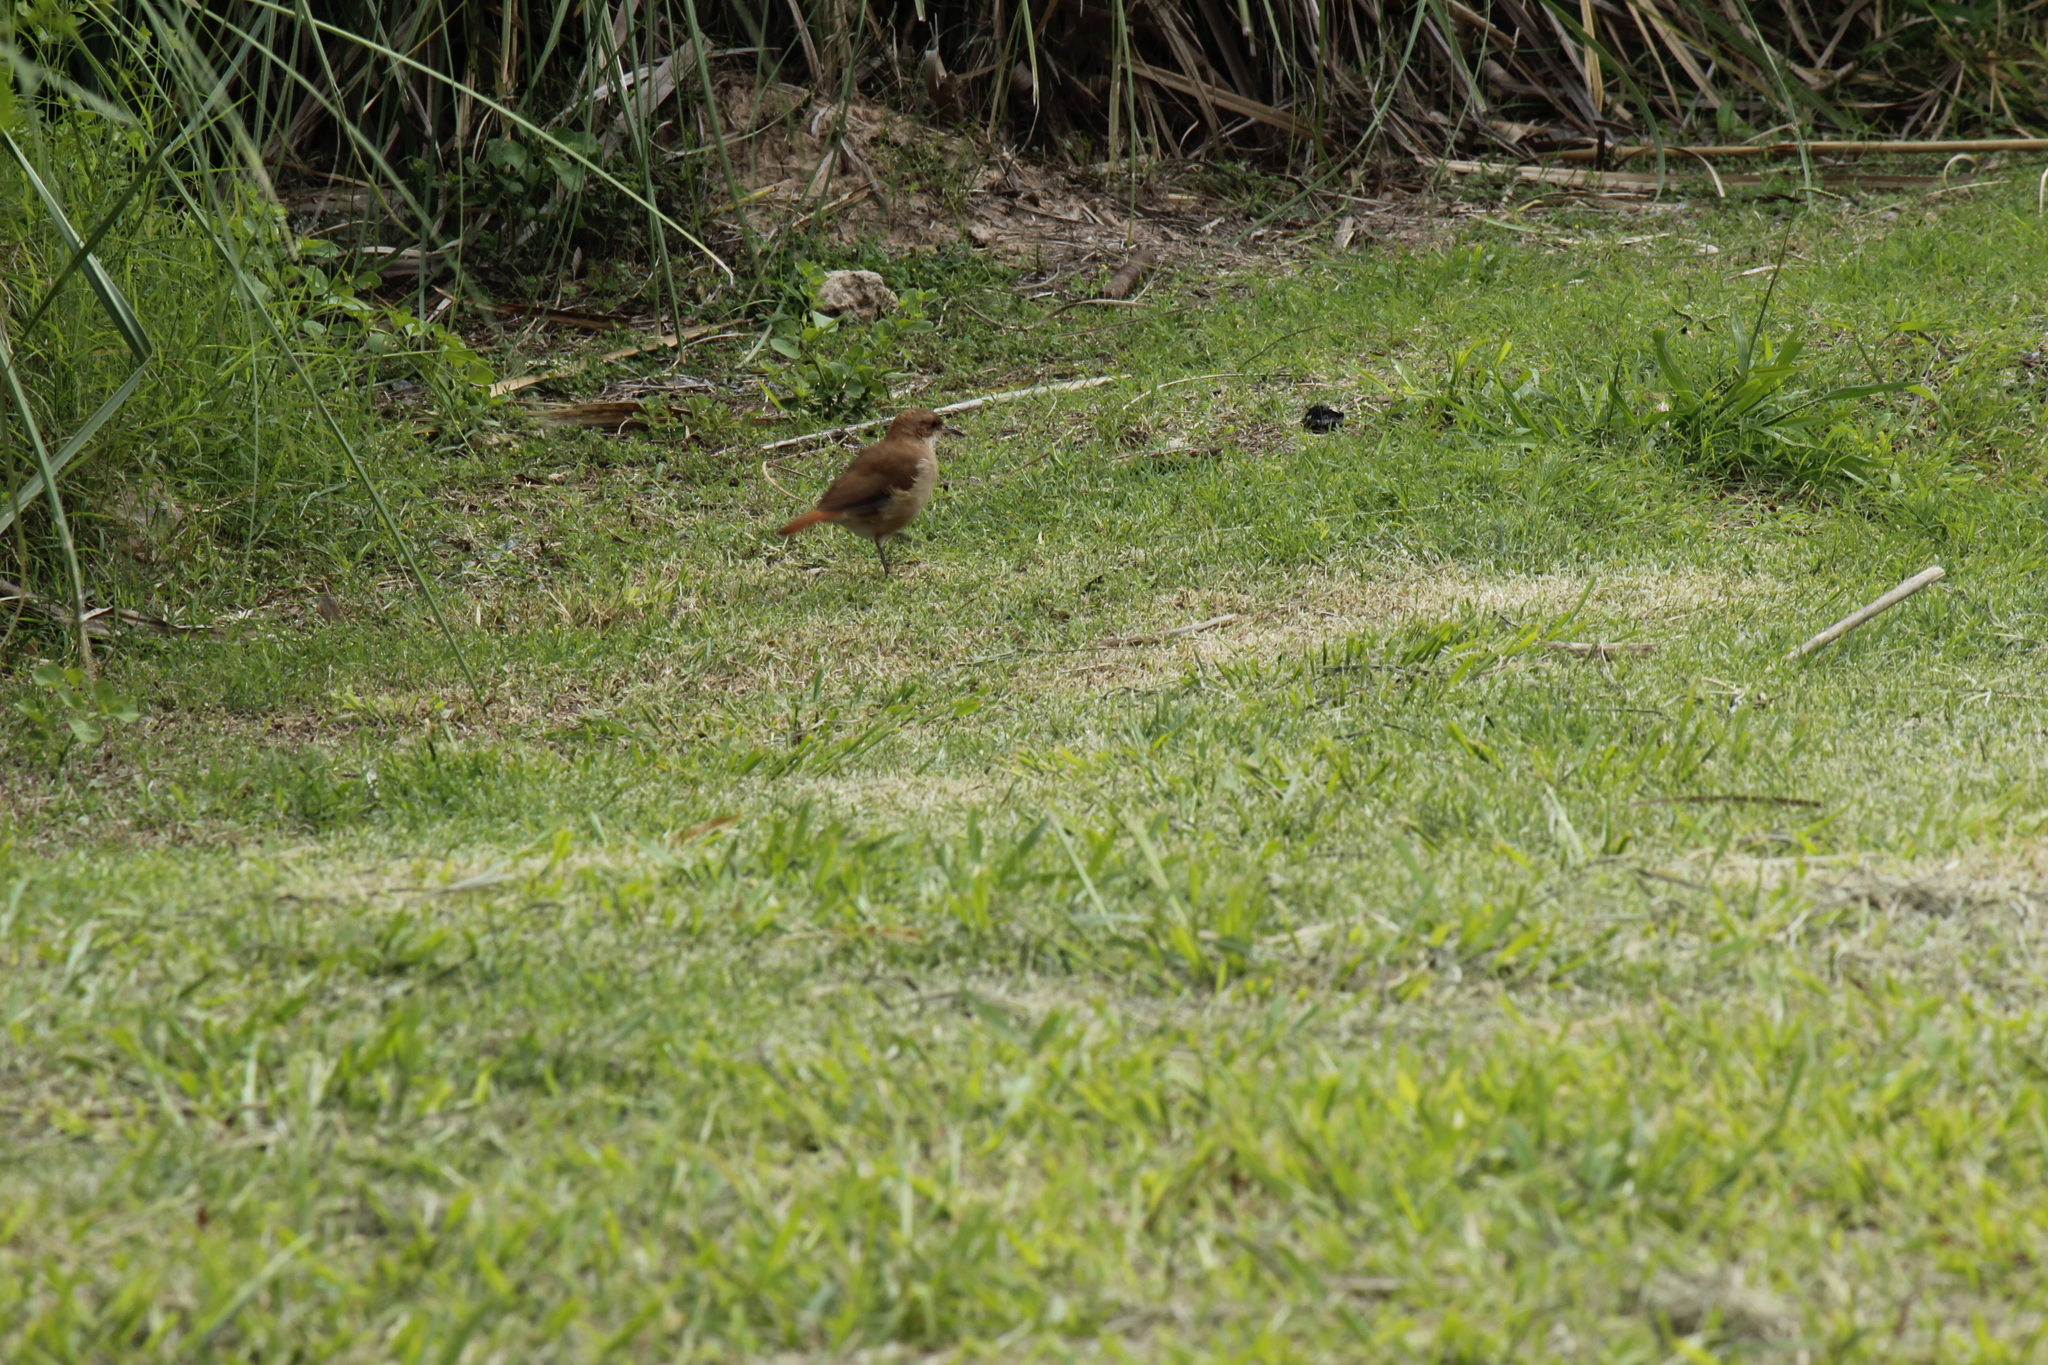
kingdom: Animalia
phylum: Chordata
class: Aves
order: Passeriformes
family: Furnariidae
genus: Furnarius
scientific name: Furnarius rufus
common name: Rufous hornero
